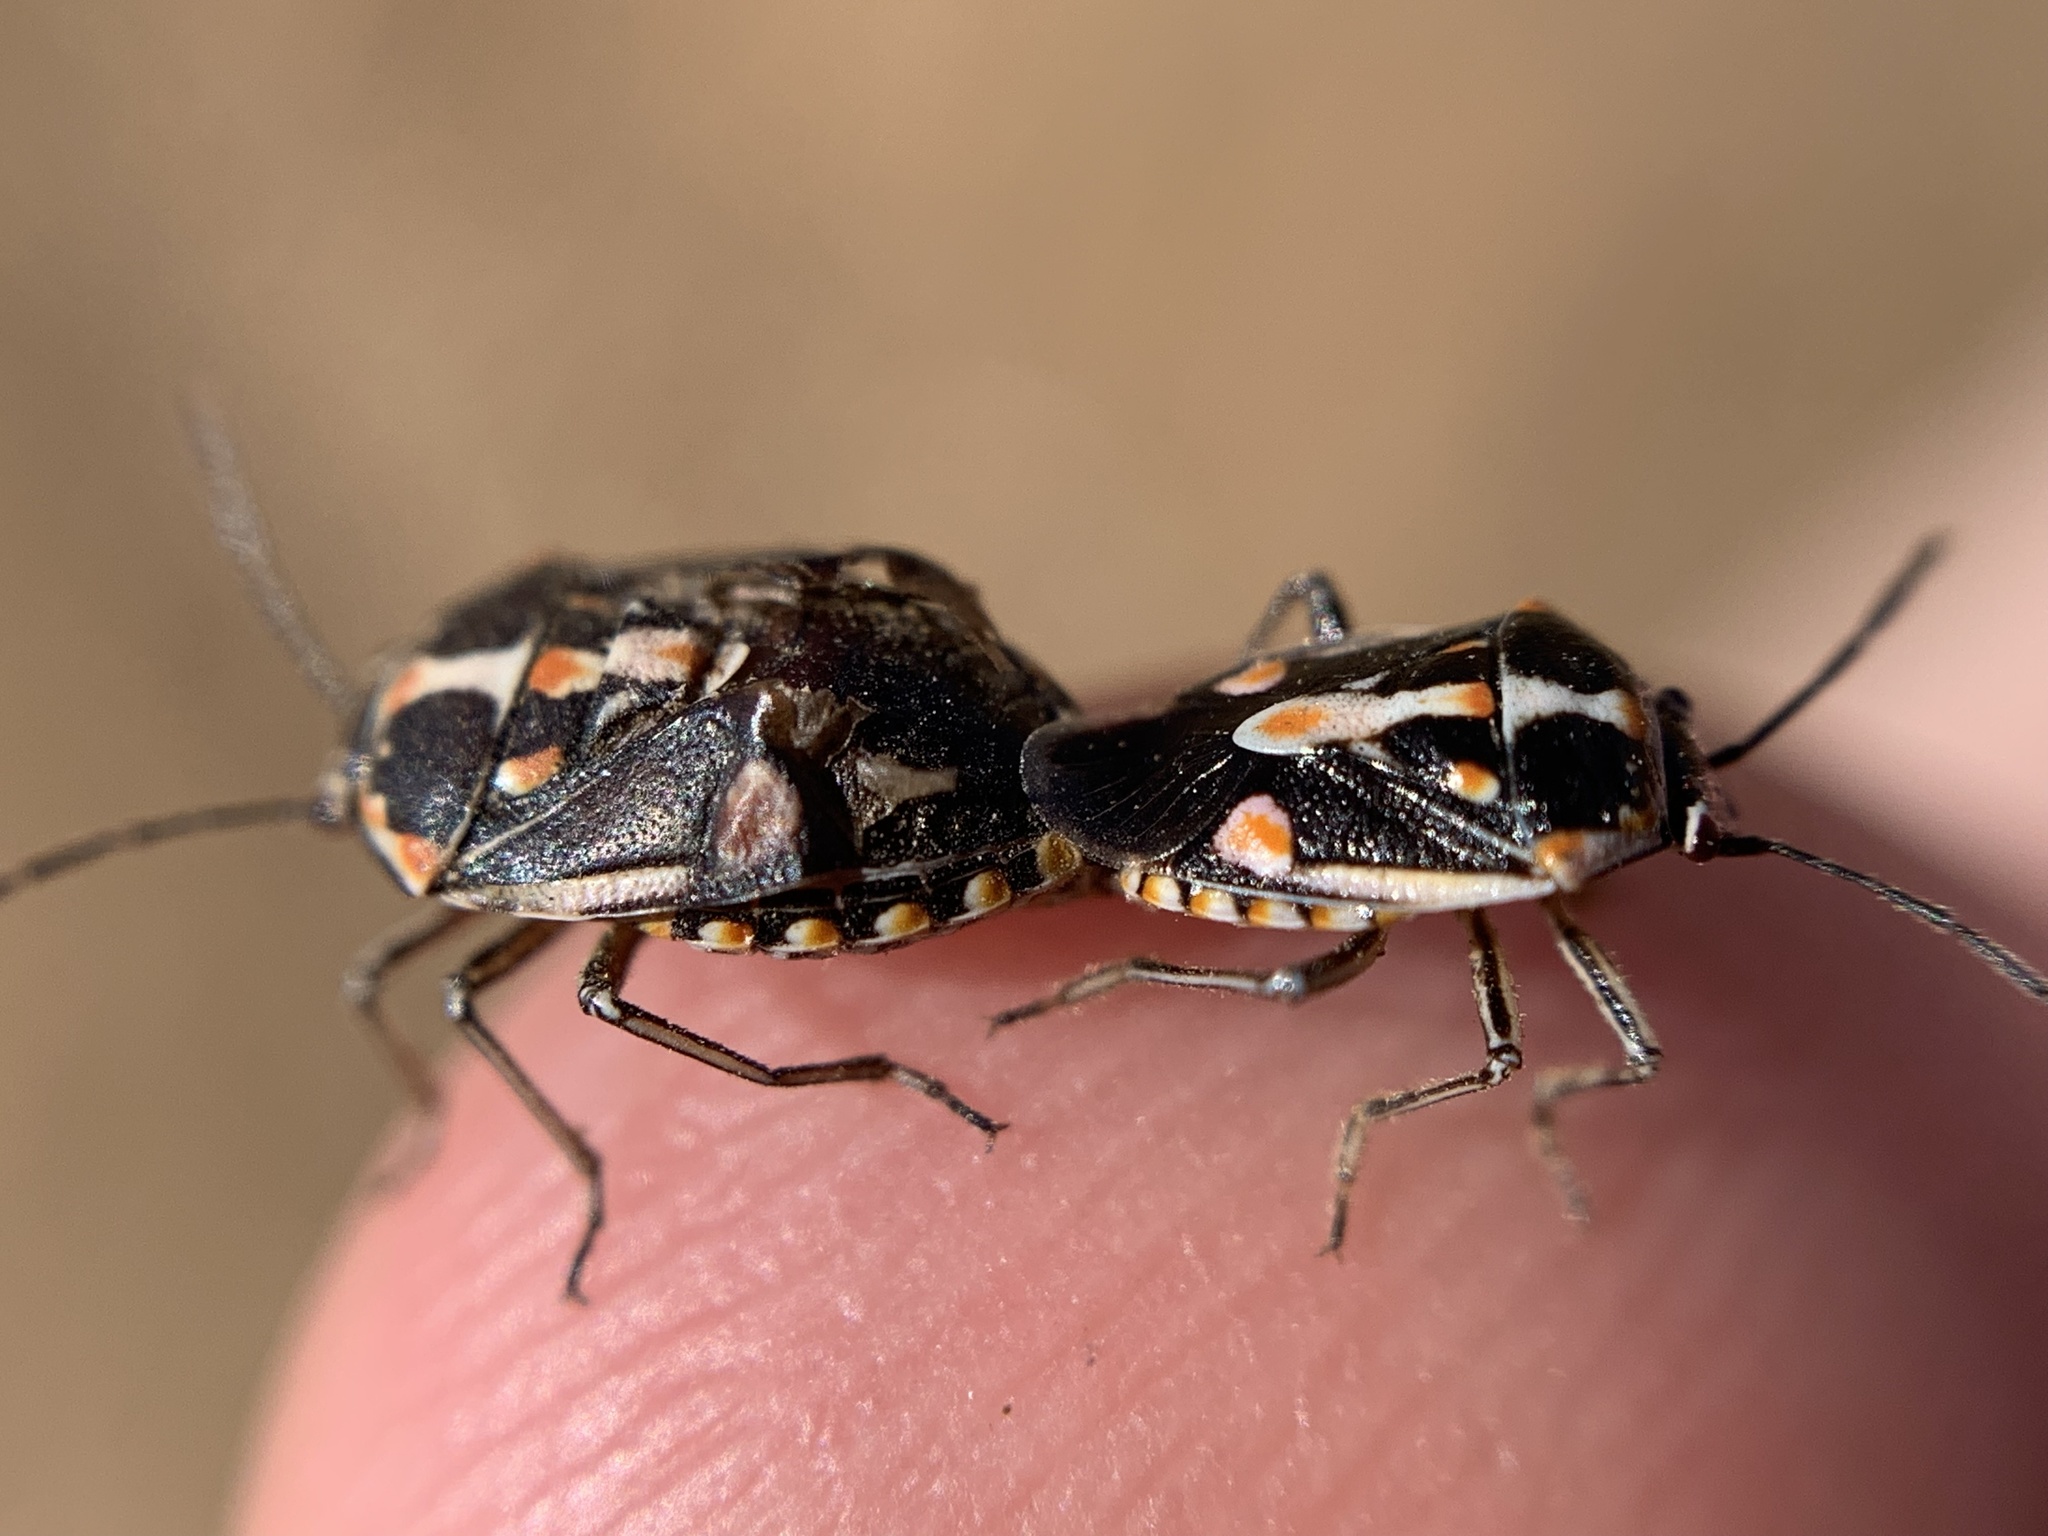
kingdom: Animalia
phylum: Arthropoda
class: Insecta
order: Hemiptera
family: Pentatomidae
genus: Bagrada
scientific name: Bagrada hilaris
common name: Bagrada bug
